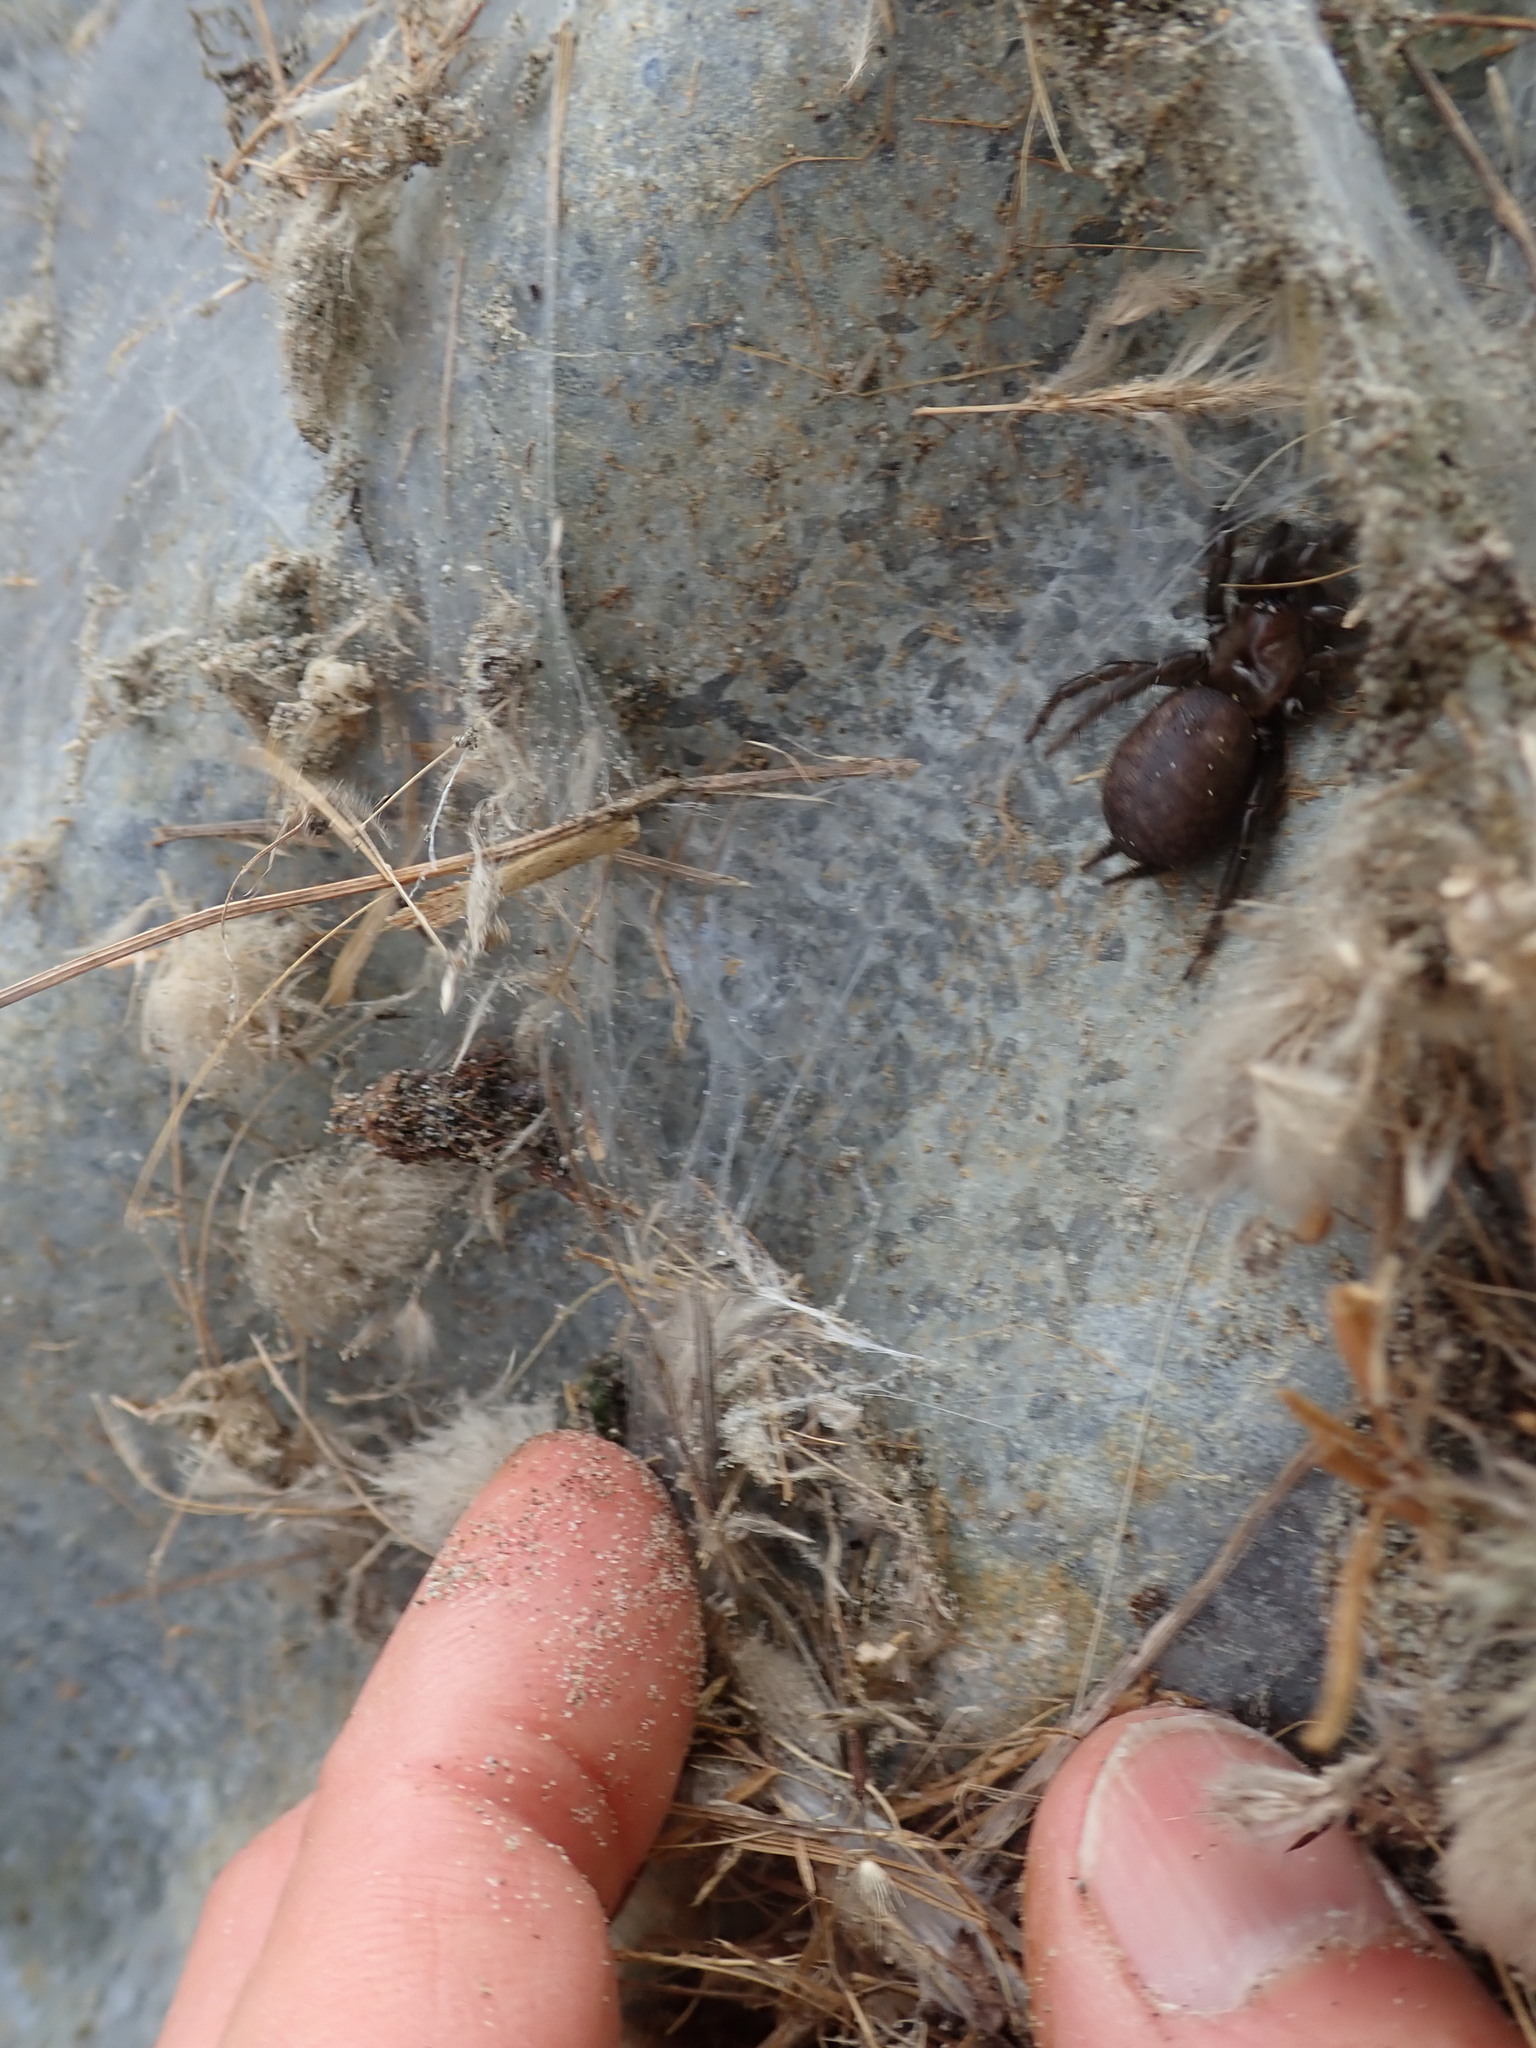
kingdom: Animalia
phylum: Arthropoda
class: Arachnida
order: Araneae
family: Porrhothelidae
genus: Porrhothele
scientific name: Porrhothele antipodiana
